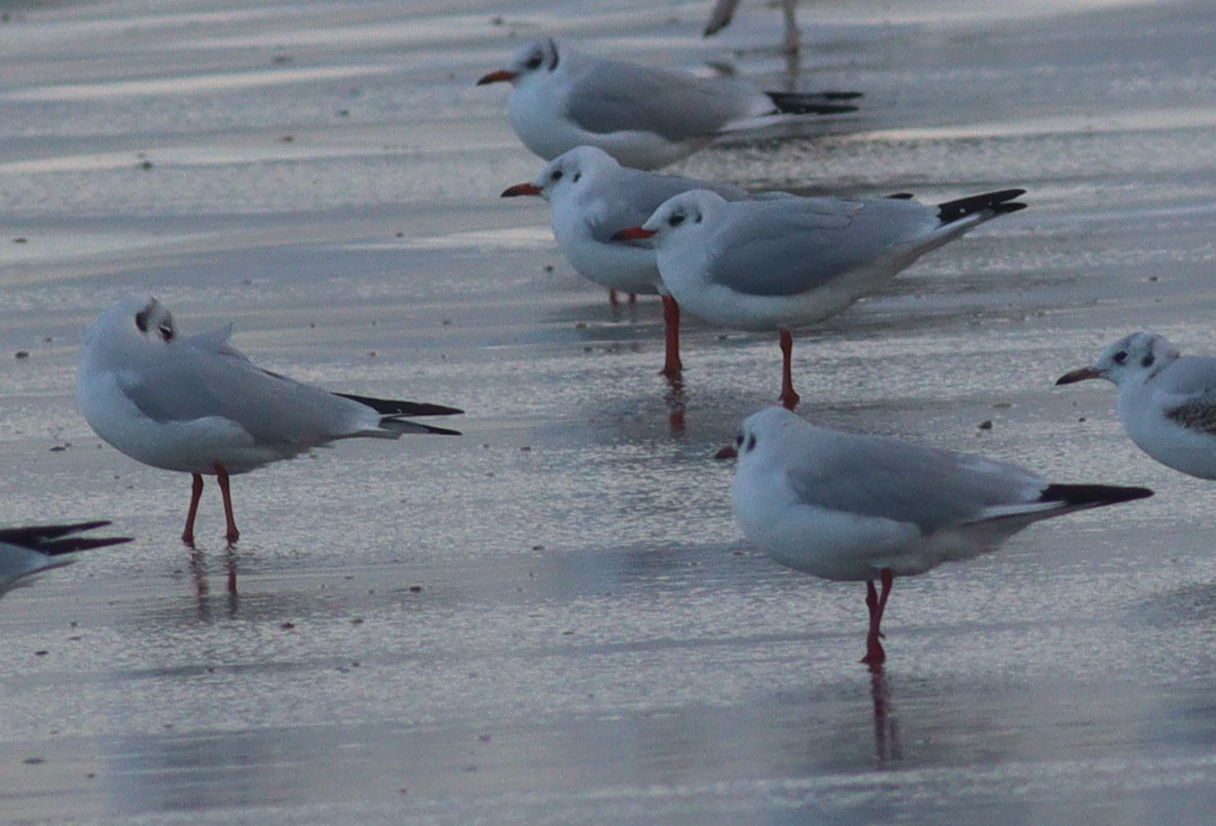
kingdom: Animalia
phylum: Chordata
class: Aves
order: Charadriiformes
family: Laridae
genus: Chroicocephalus
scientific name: Chroicocephalus ridibundus
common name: Black-headed gull
